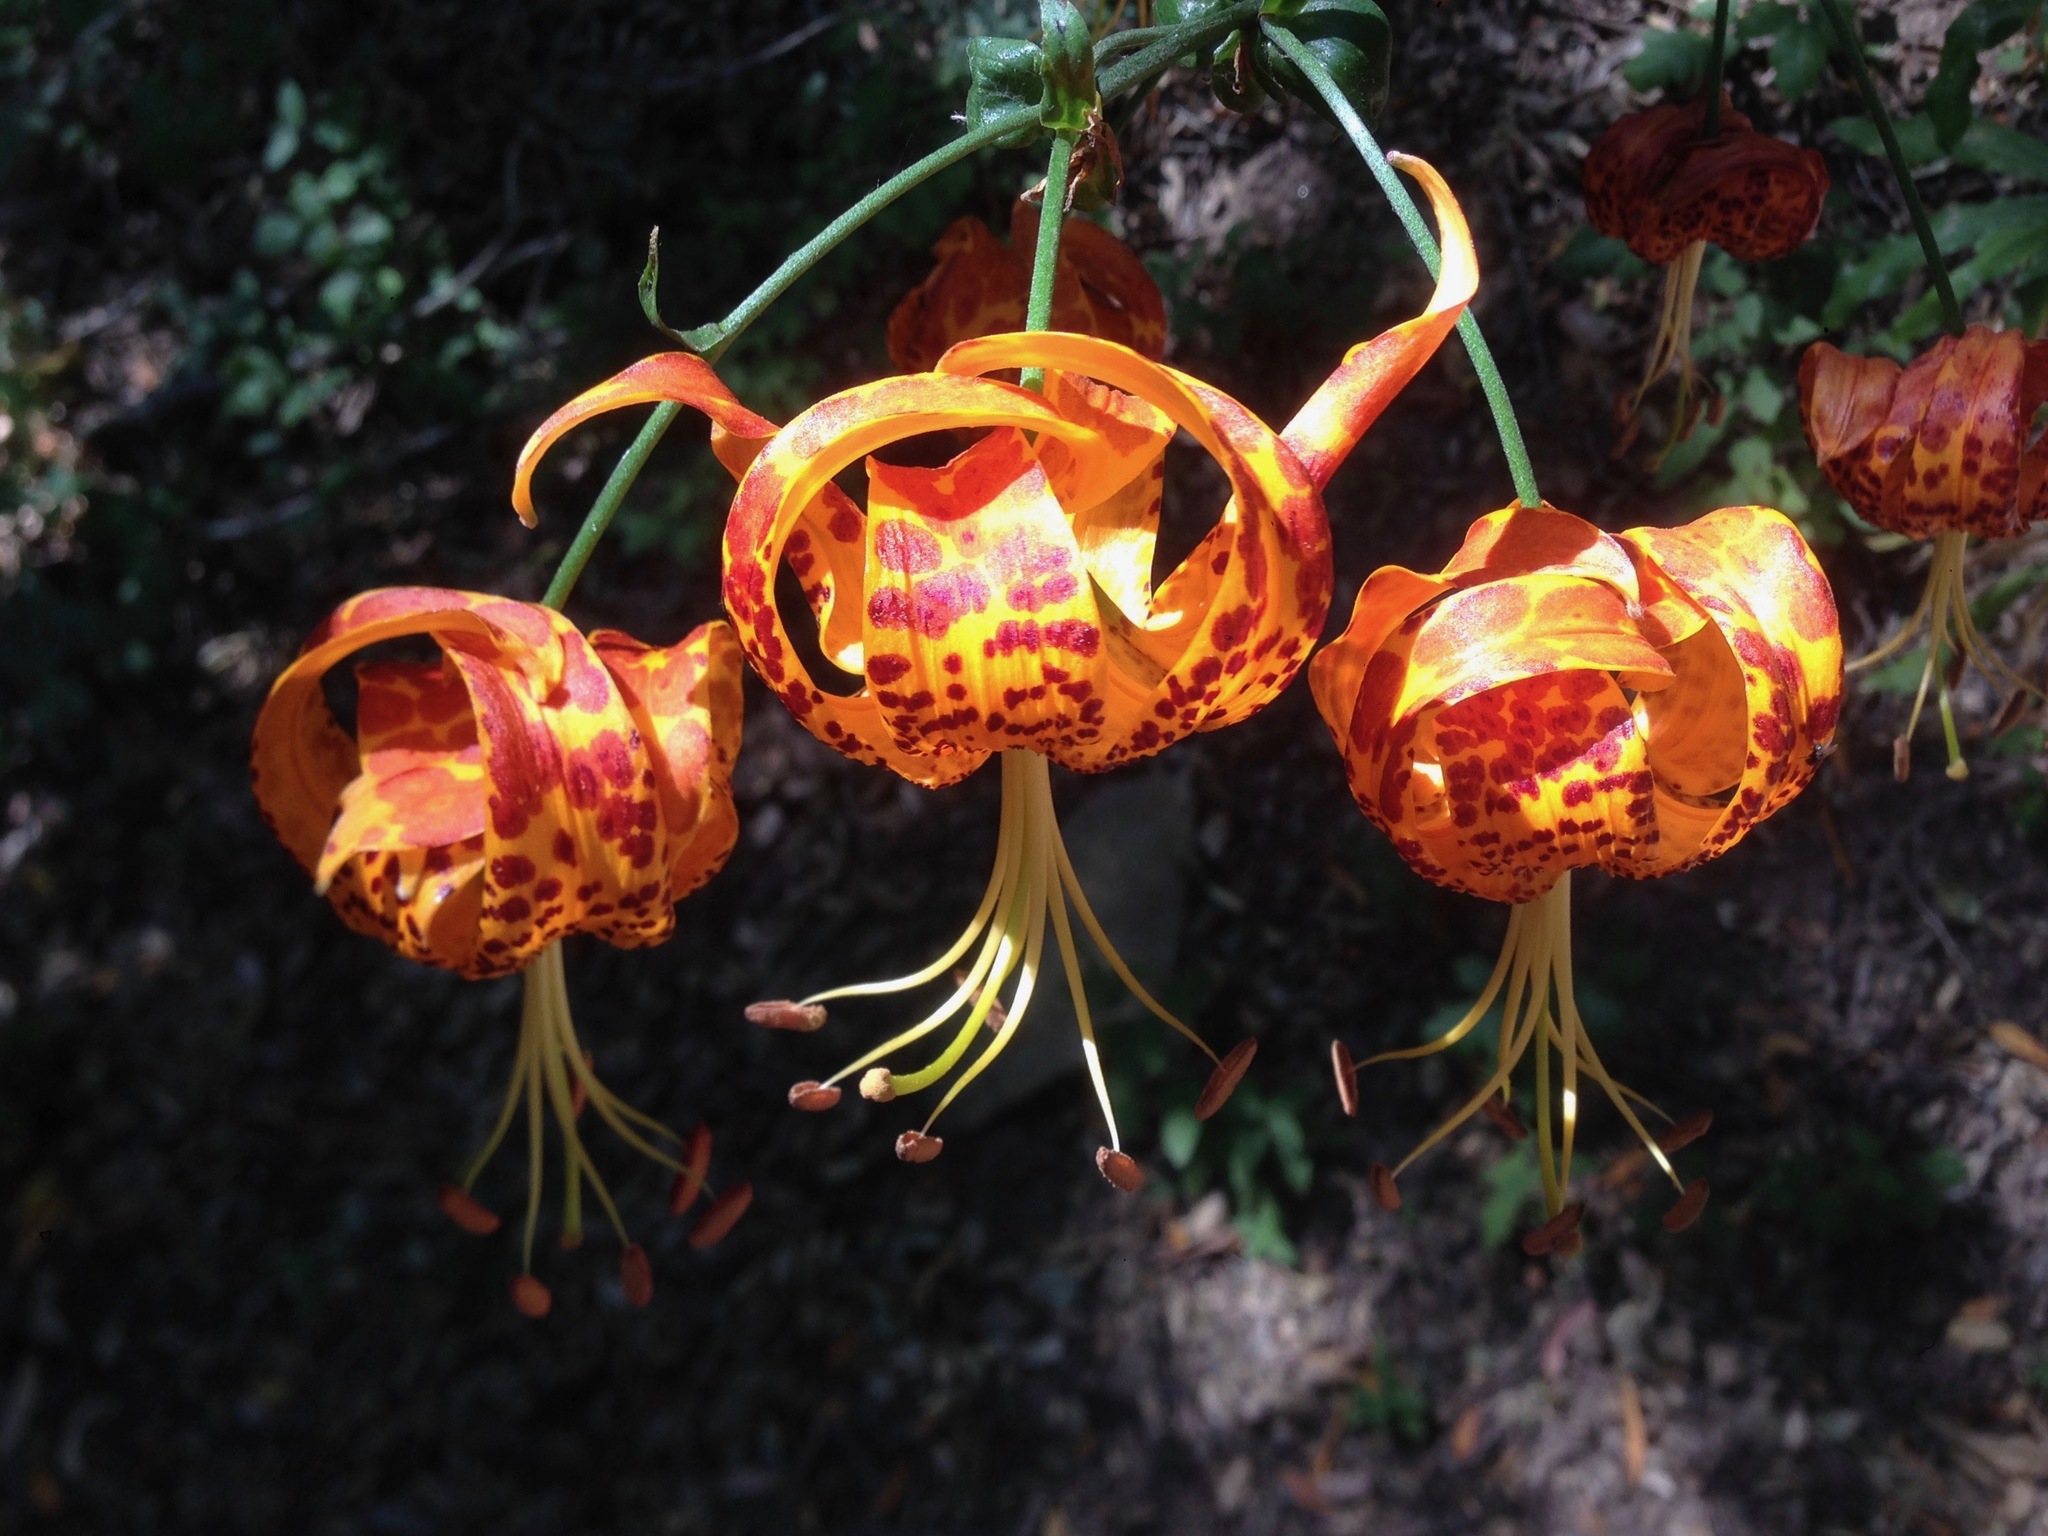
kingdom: Plantae
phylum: Tracheophyta
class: Liliopsida
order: Liliales
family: Liliaceae
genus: Lilium
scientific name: Lilium humboldtii
